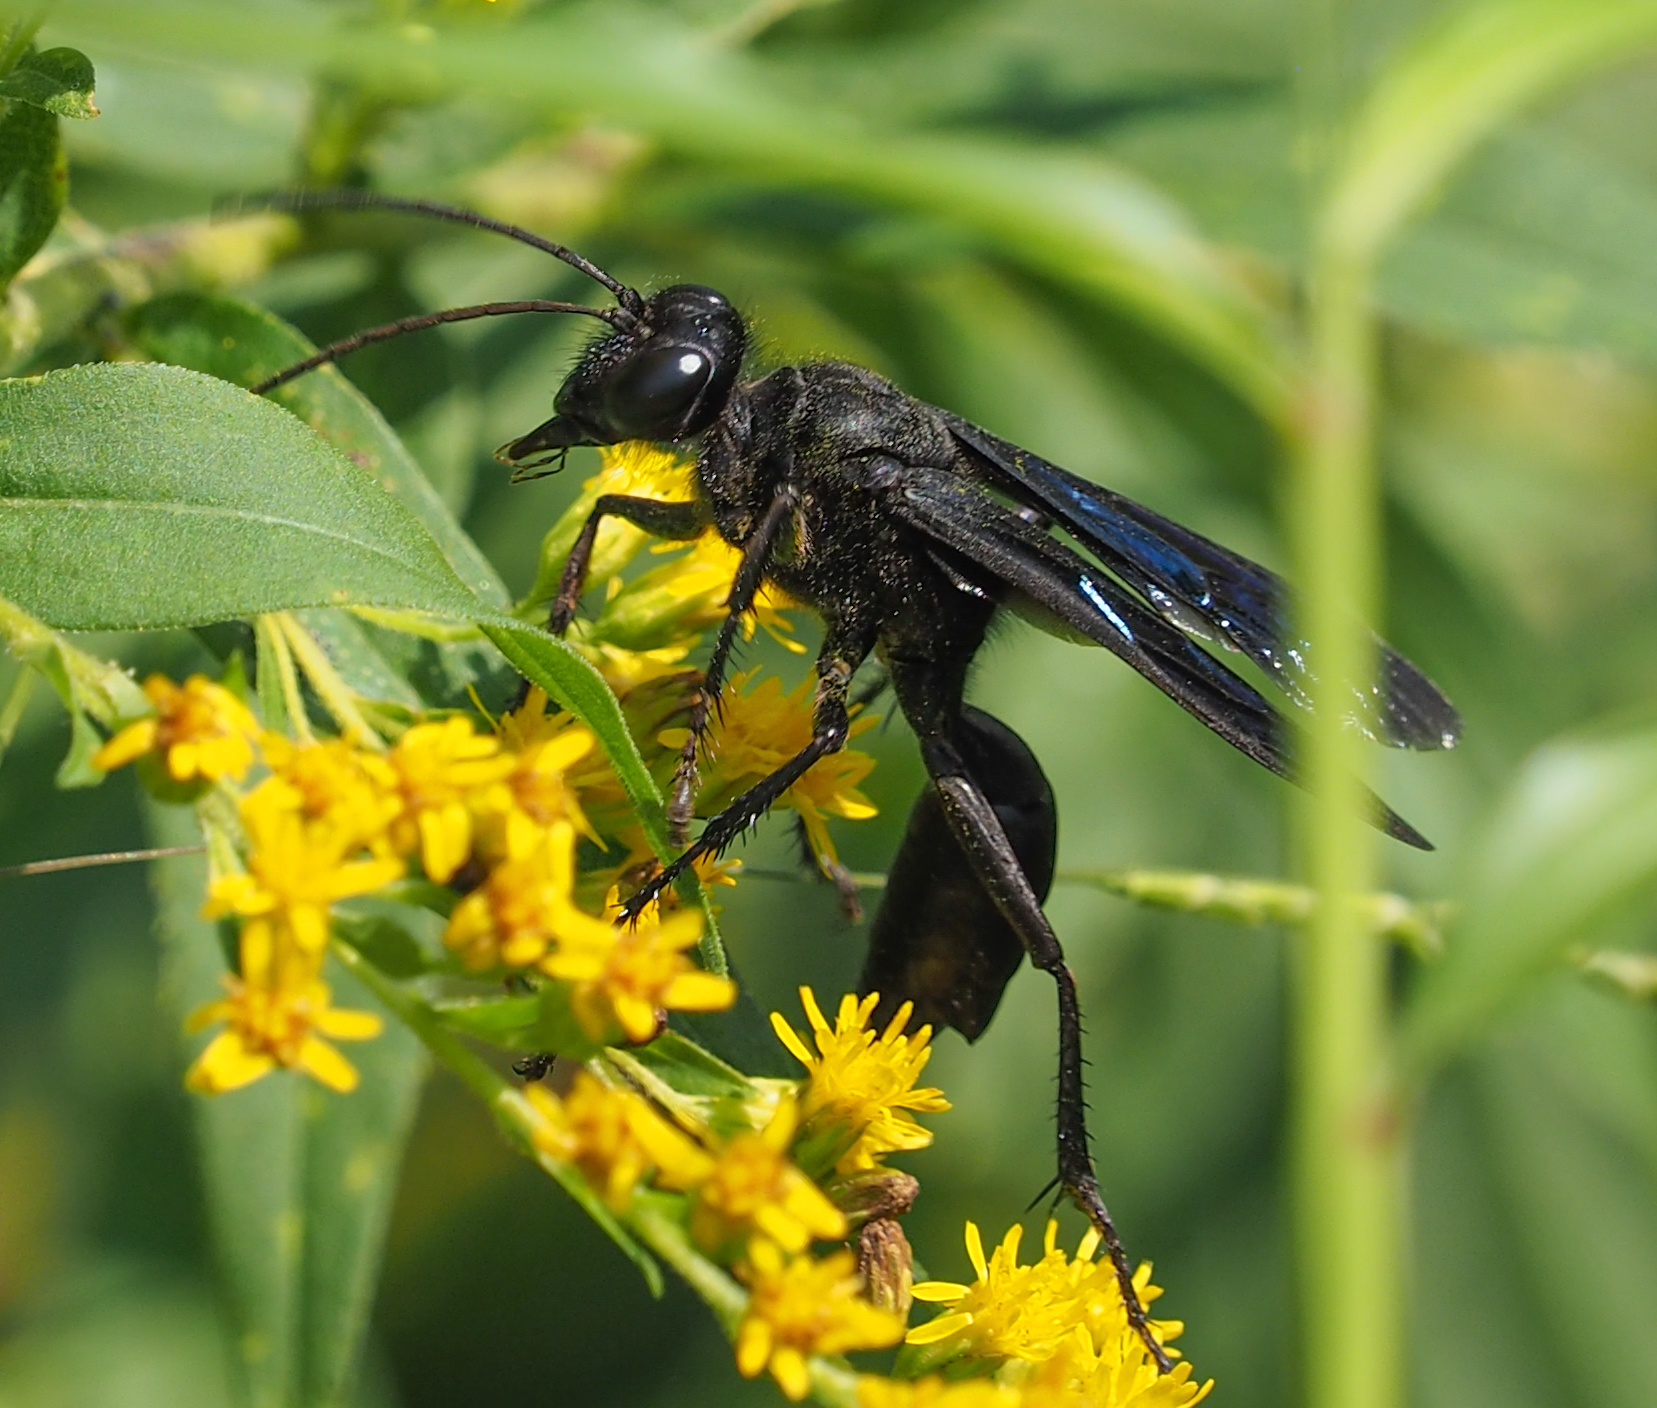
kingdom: Animalia
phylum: Arthropoda
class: Insecta
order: Hymenoptera
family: Sphecidae
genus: Sphex
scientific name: Sphex pensylvanicus
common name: Great black digger wasp
